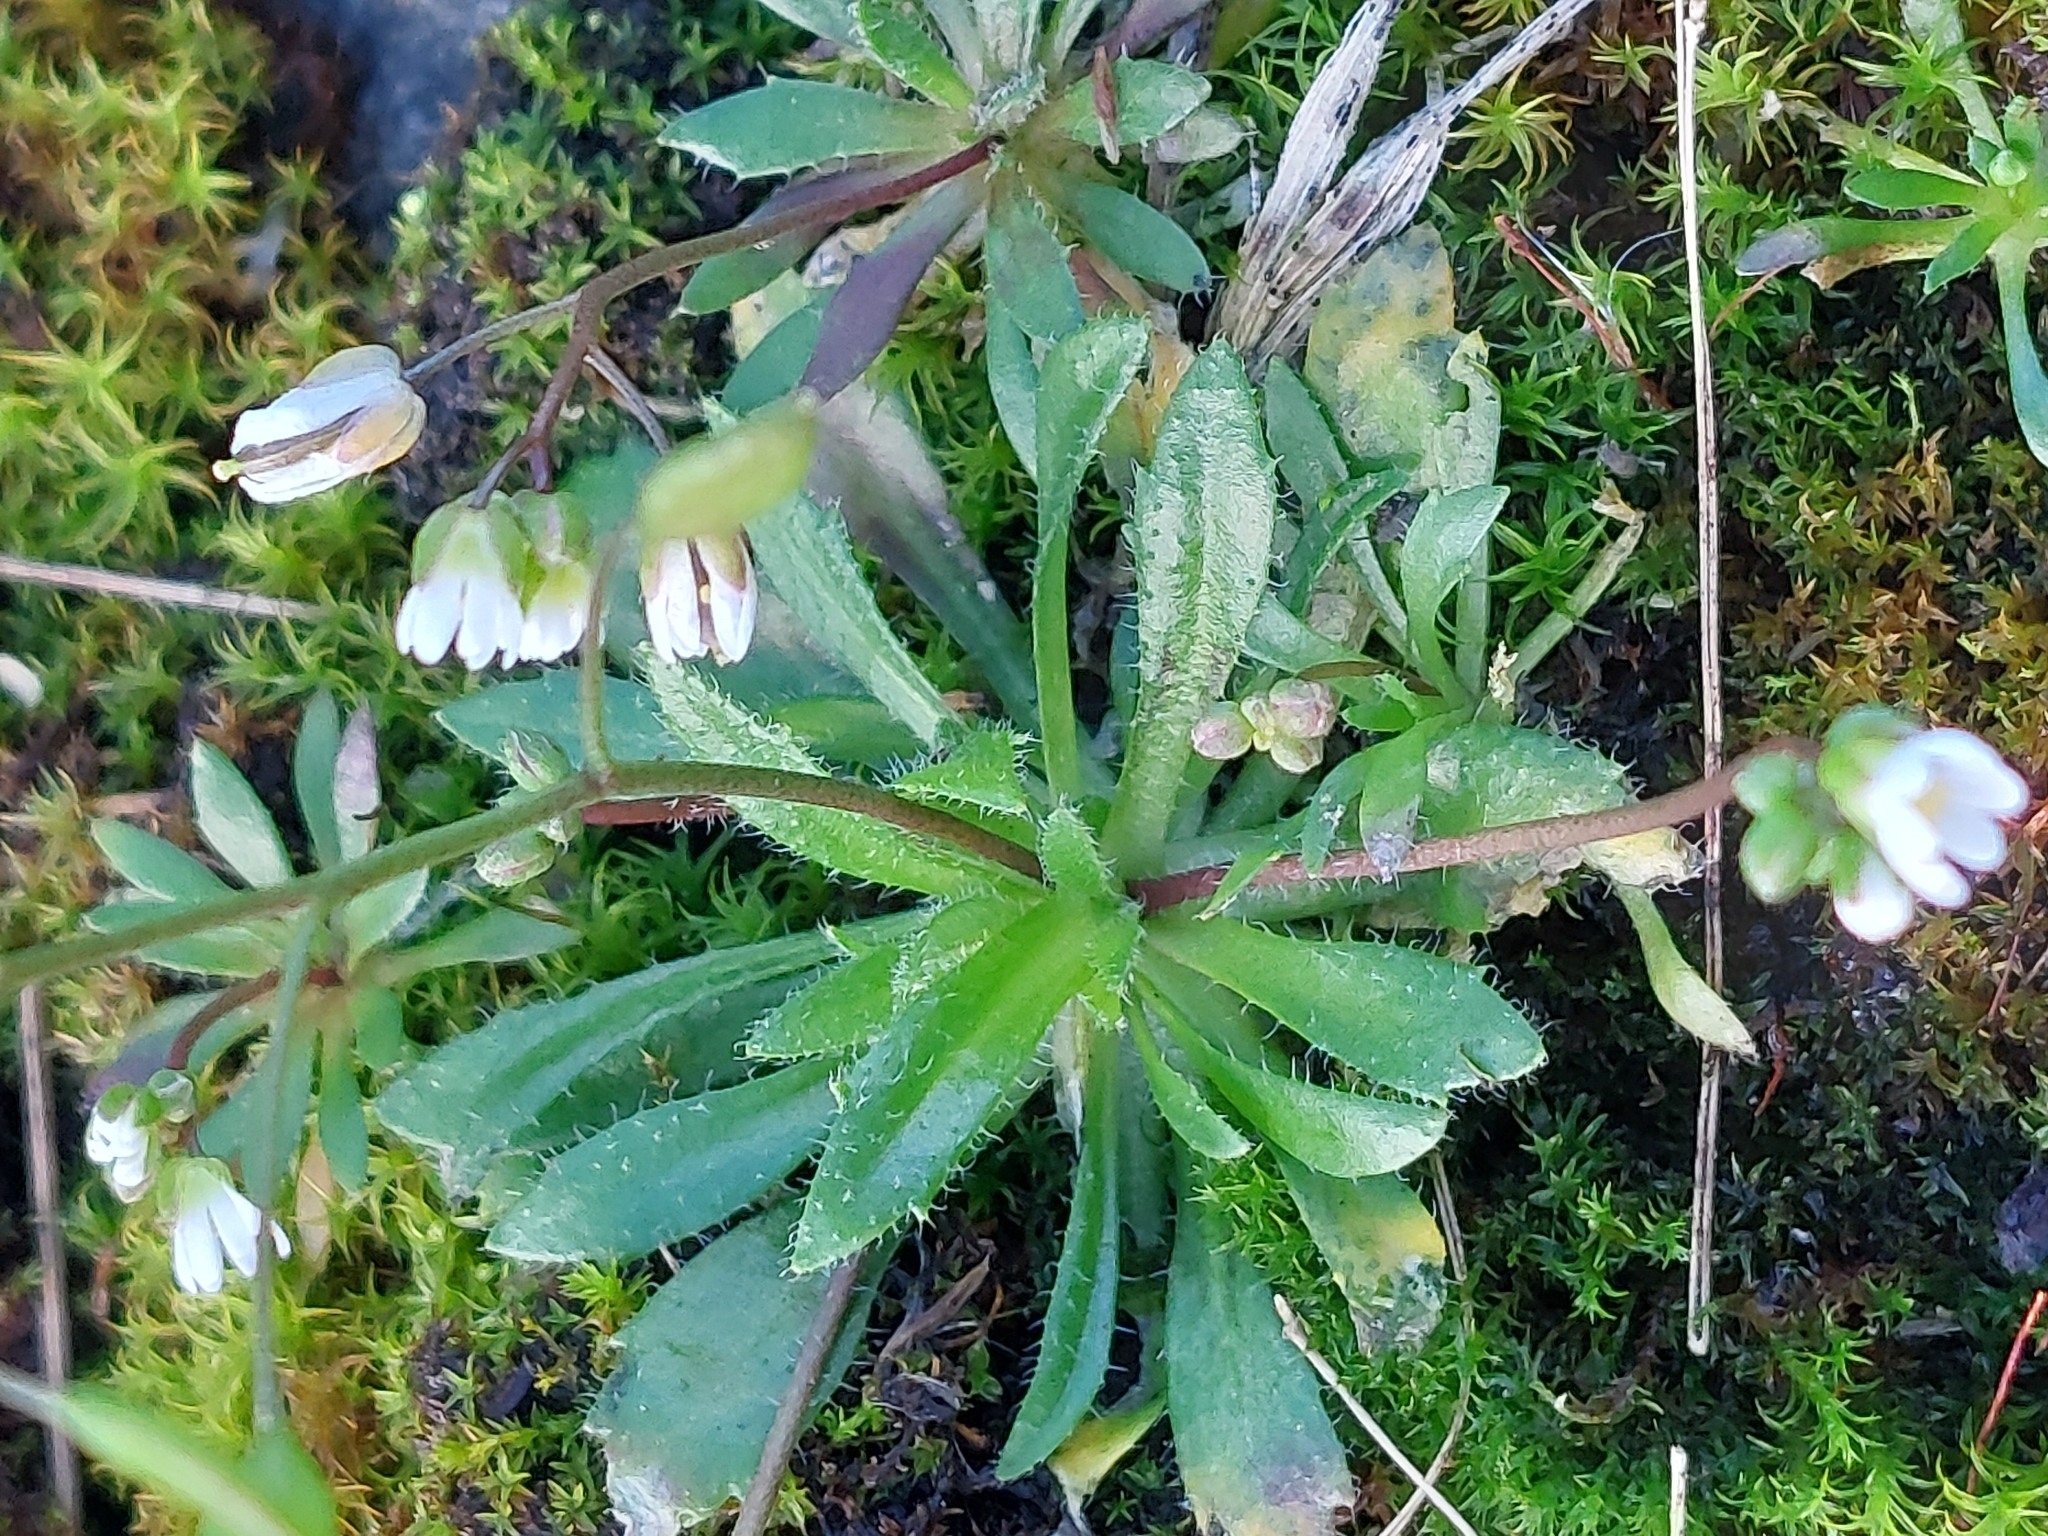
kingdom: Plantae
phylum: Tracheophyta
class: Magnoliopsida
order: Brassicales
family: Brassicaceae
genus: Draba
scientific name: Draba verna
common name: Spring draba
